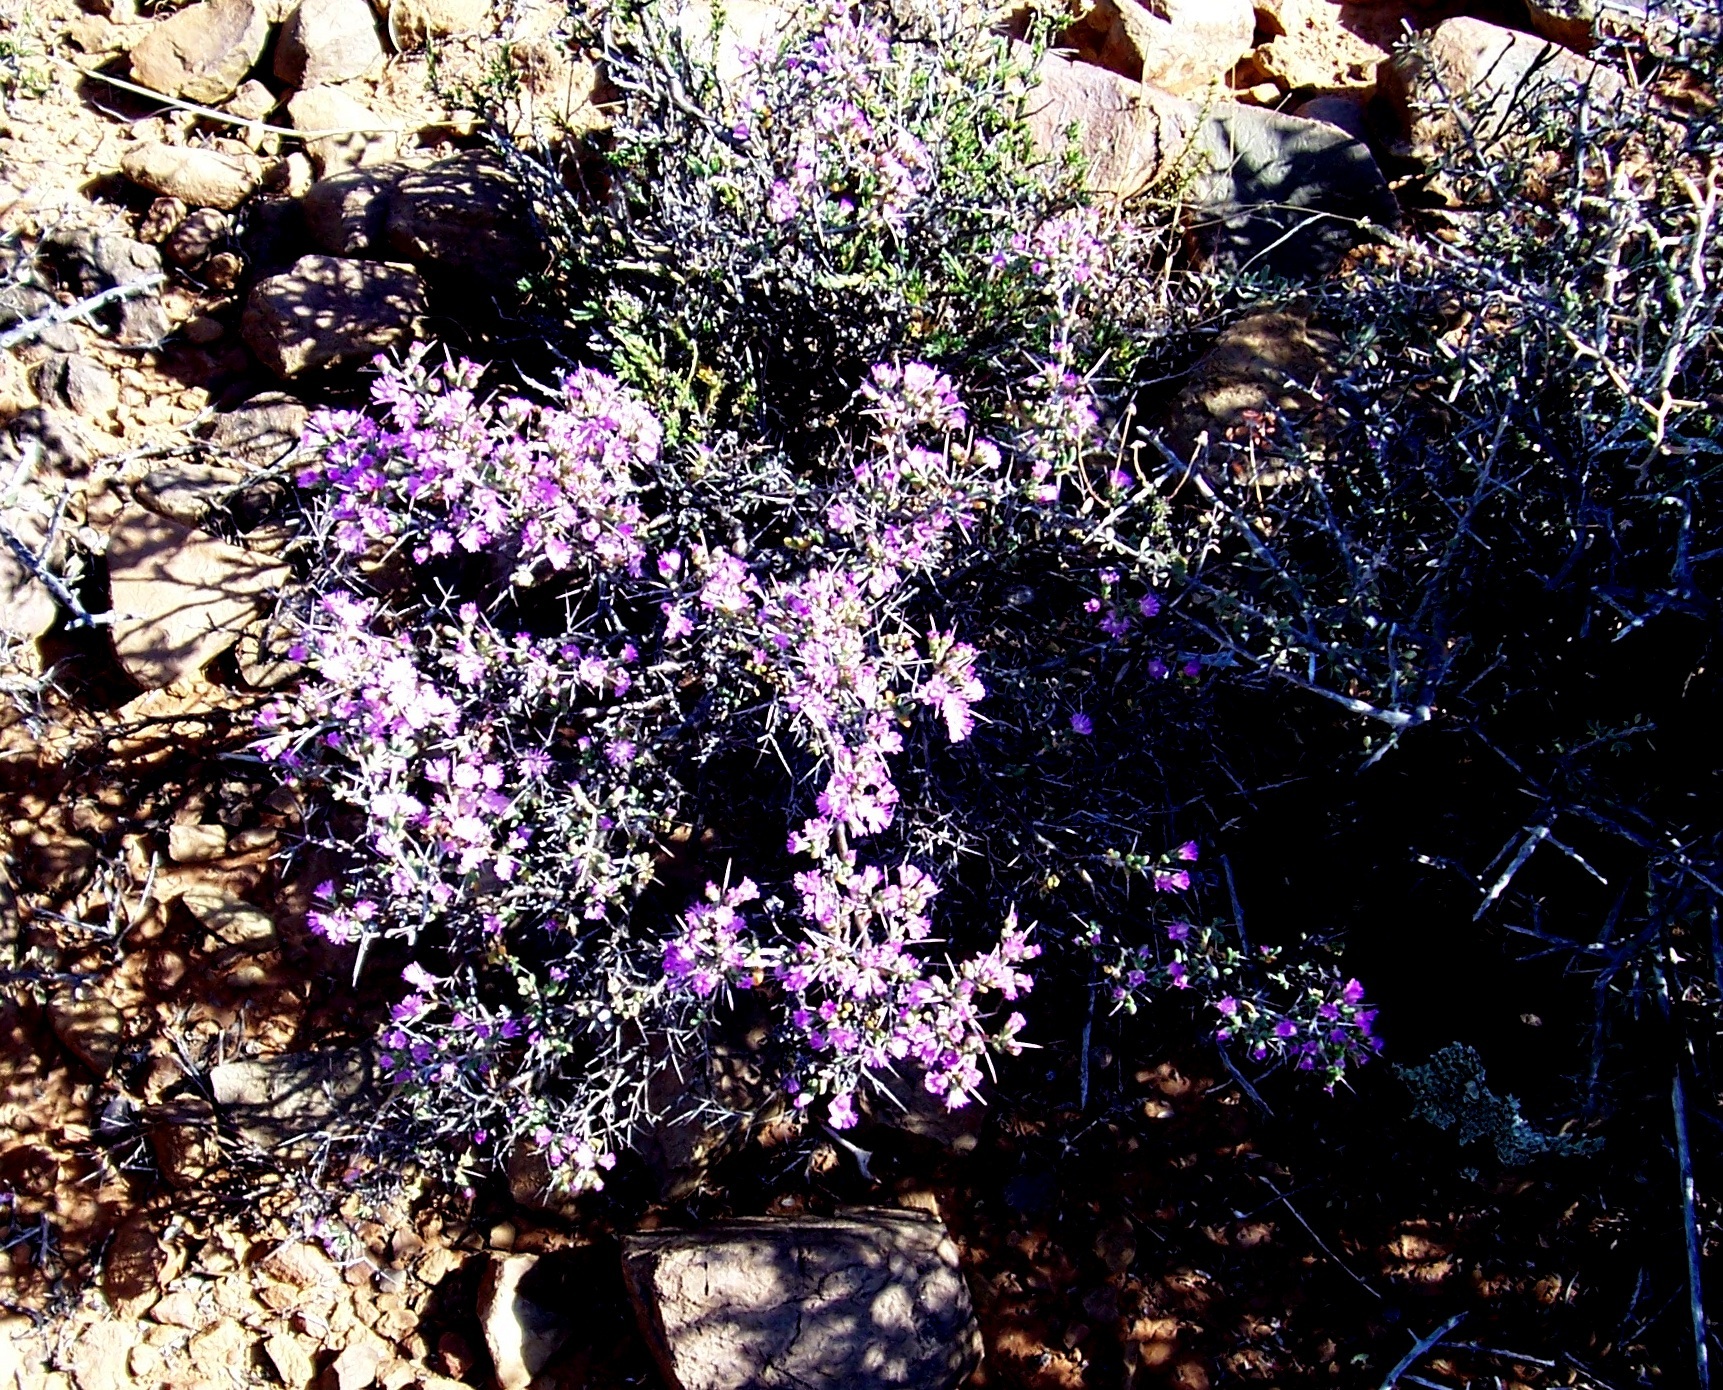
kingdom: Plantae
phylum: Tracheophyta
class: Magnoliopsida
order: Caryophyllales
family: Aizoaceae
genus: Ruschia
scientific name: Ruschia intricata
